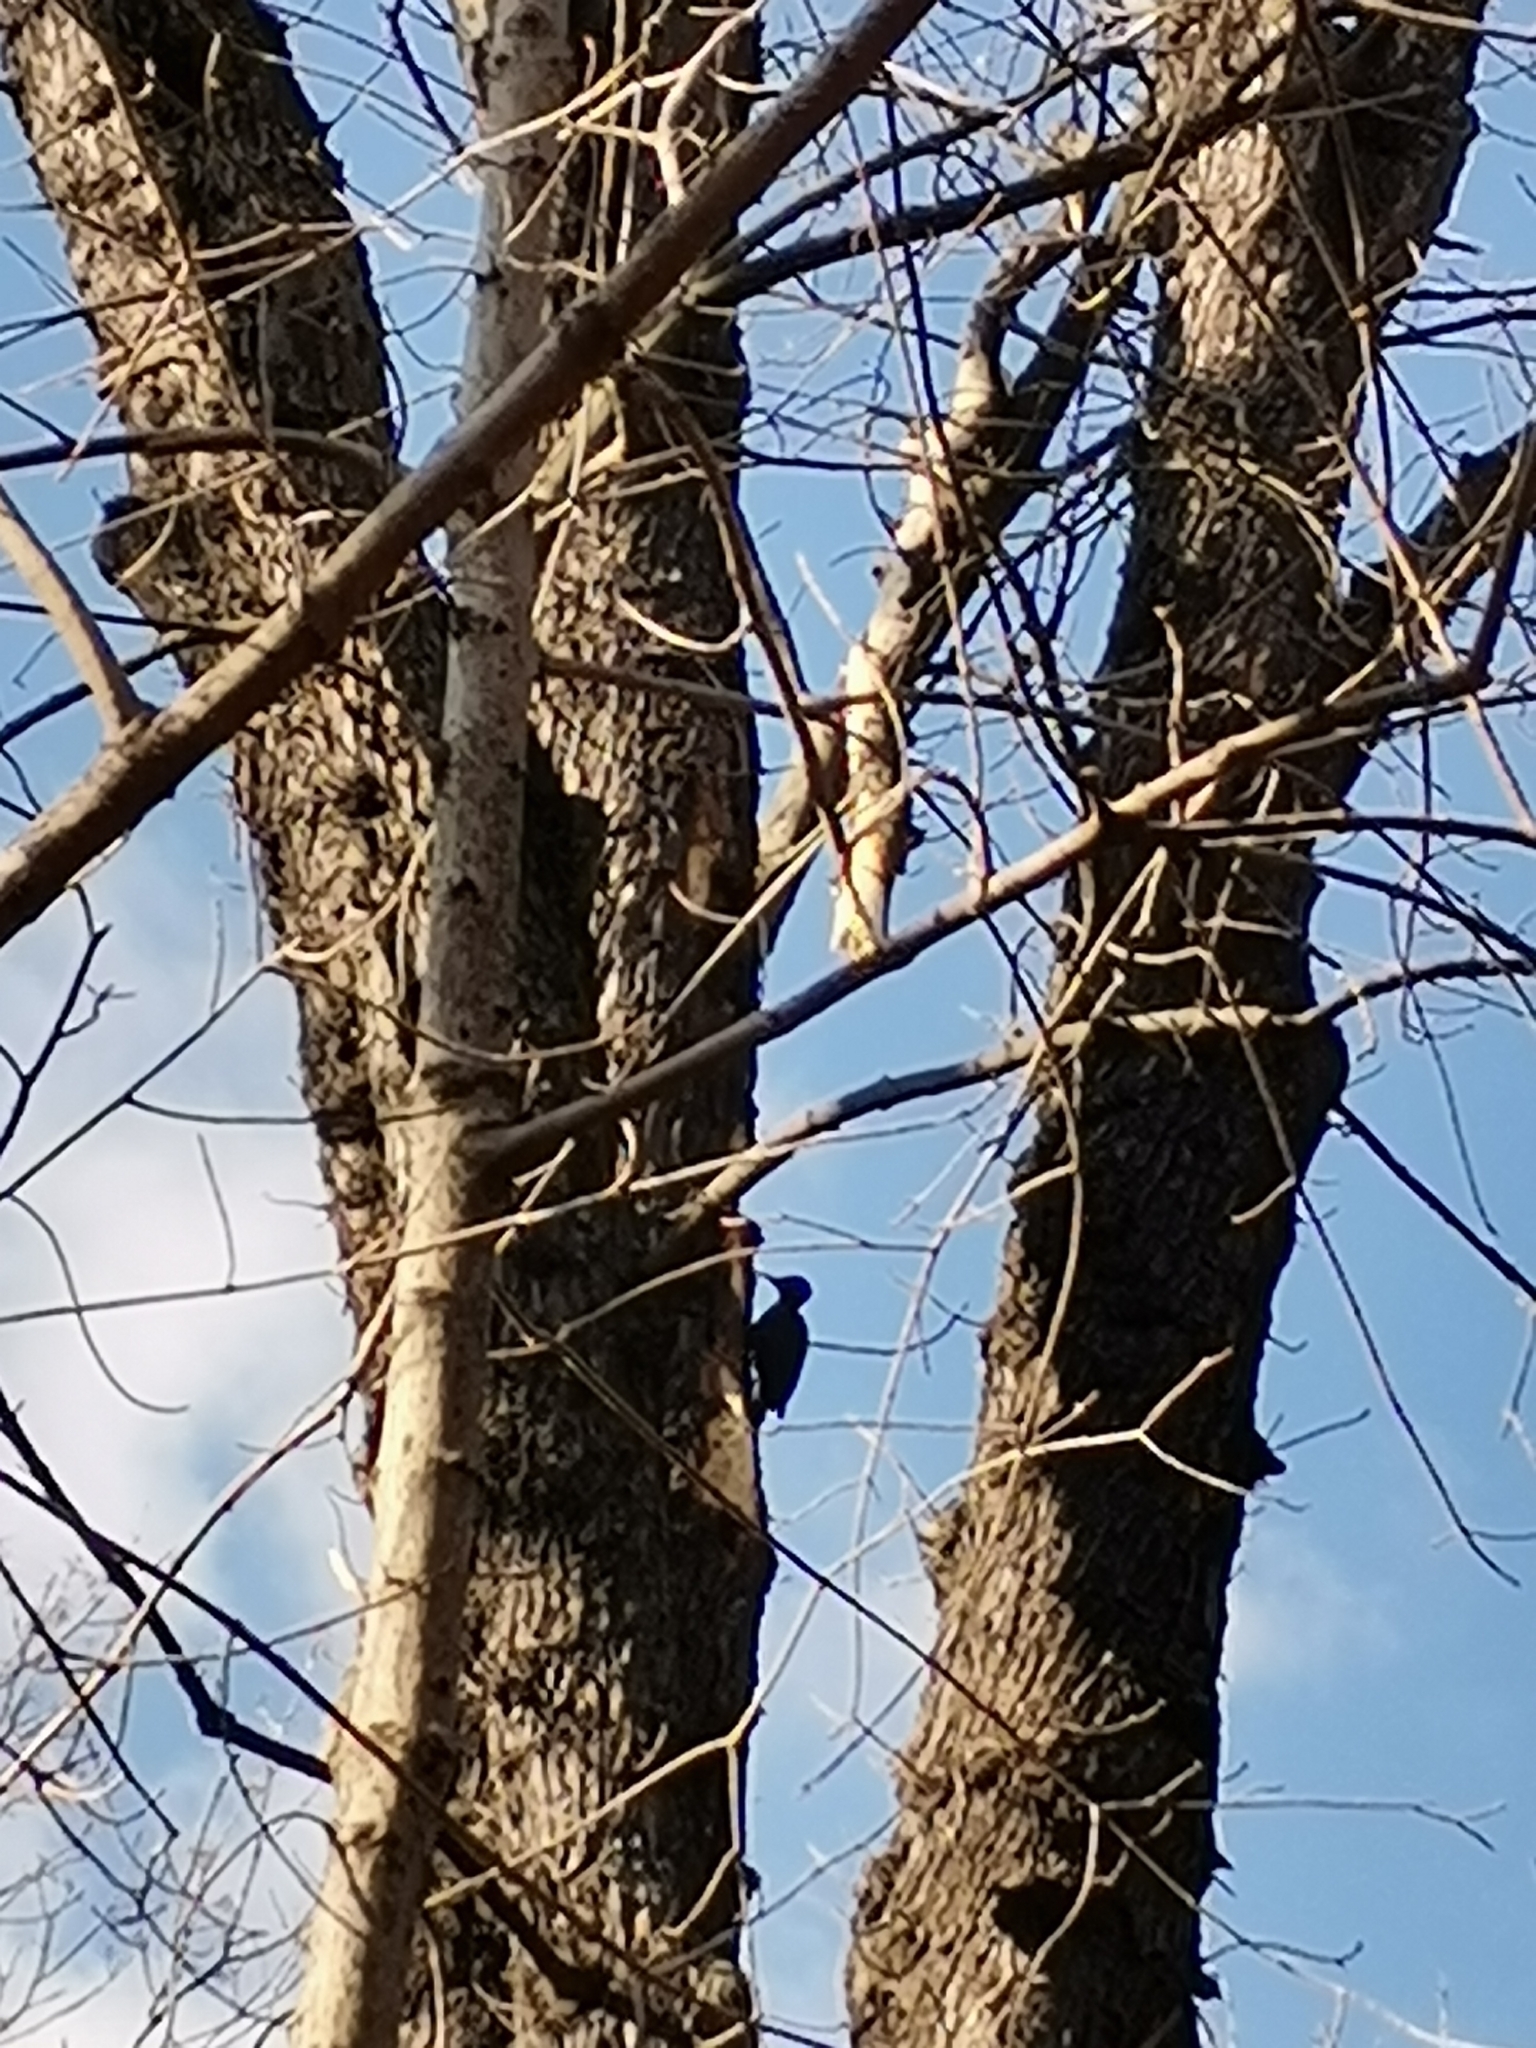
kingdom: Animalia
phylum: Chordata
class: Aves
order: Piciformes
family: Picidae
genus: Dryocopus
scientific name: Dryocopus martius
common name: Black woodpecker
